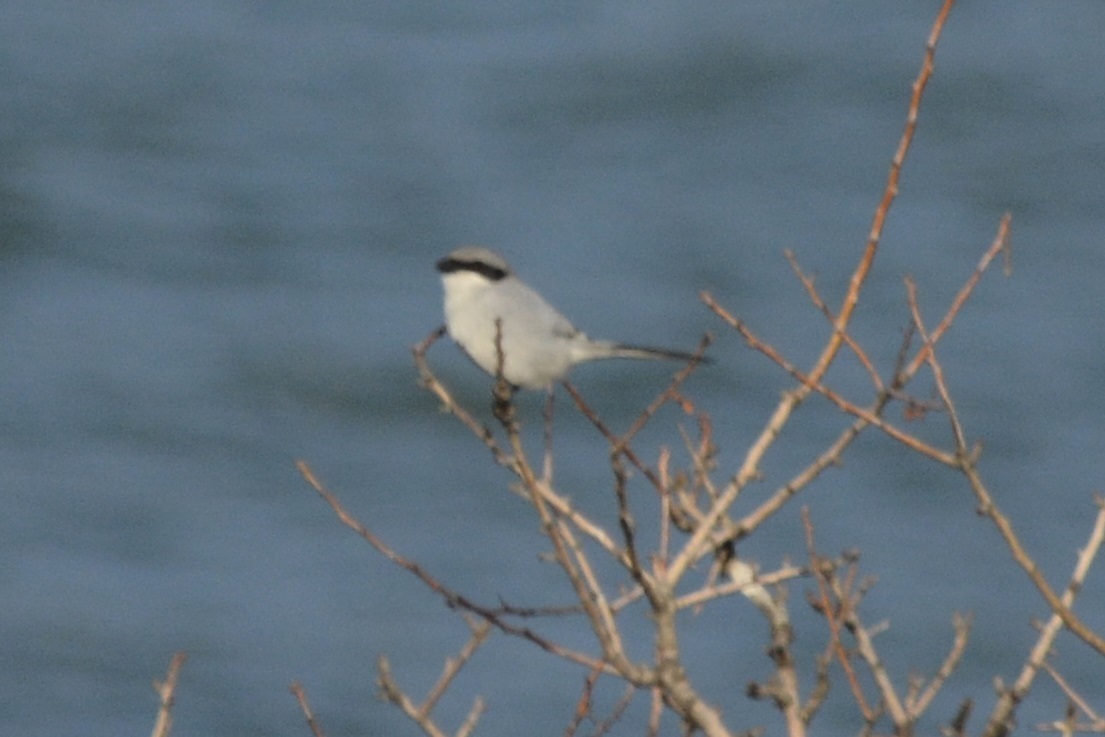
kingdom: Animalia
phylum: Chordata
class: Aves
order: Passeriformes
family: Laniidae
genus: Lanius
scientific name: Lanius excubitor
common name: Great grey shrike
